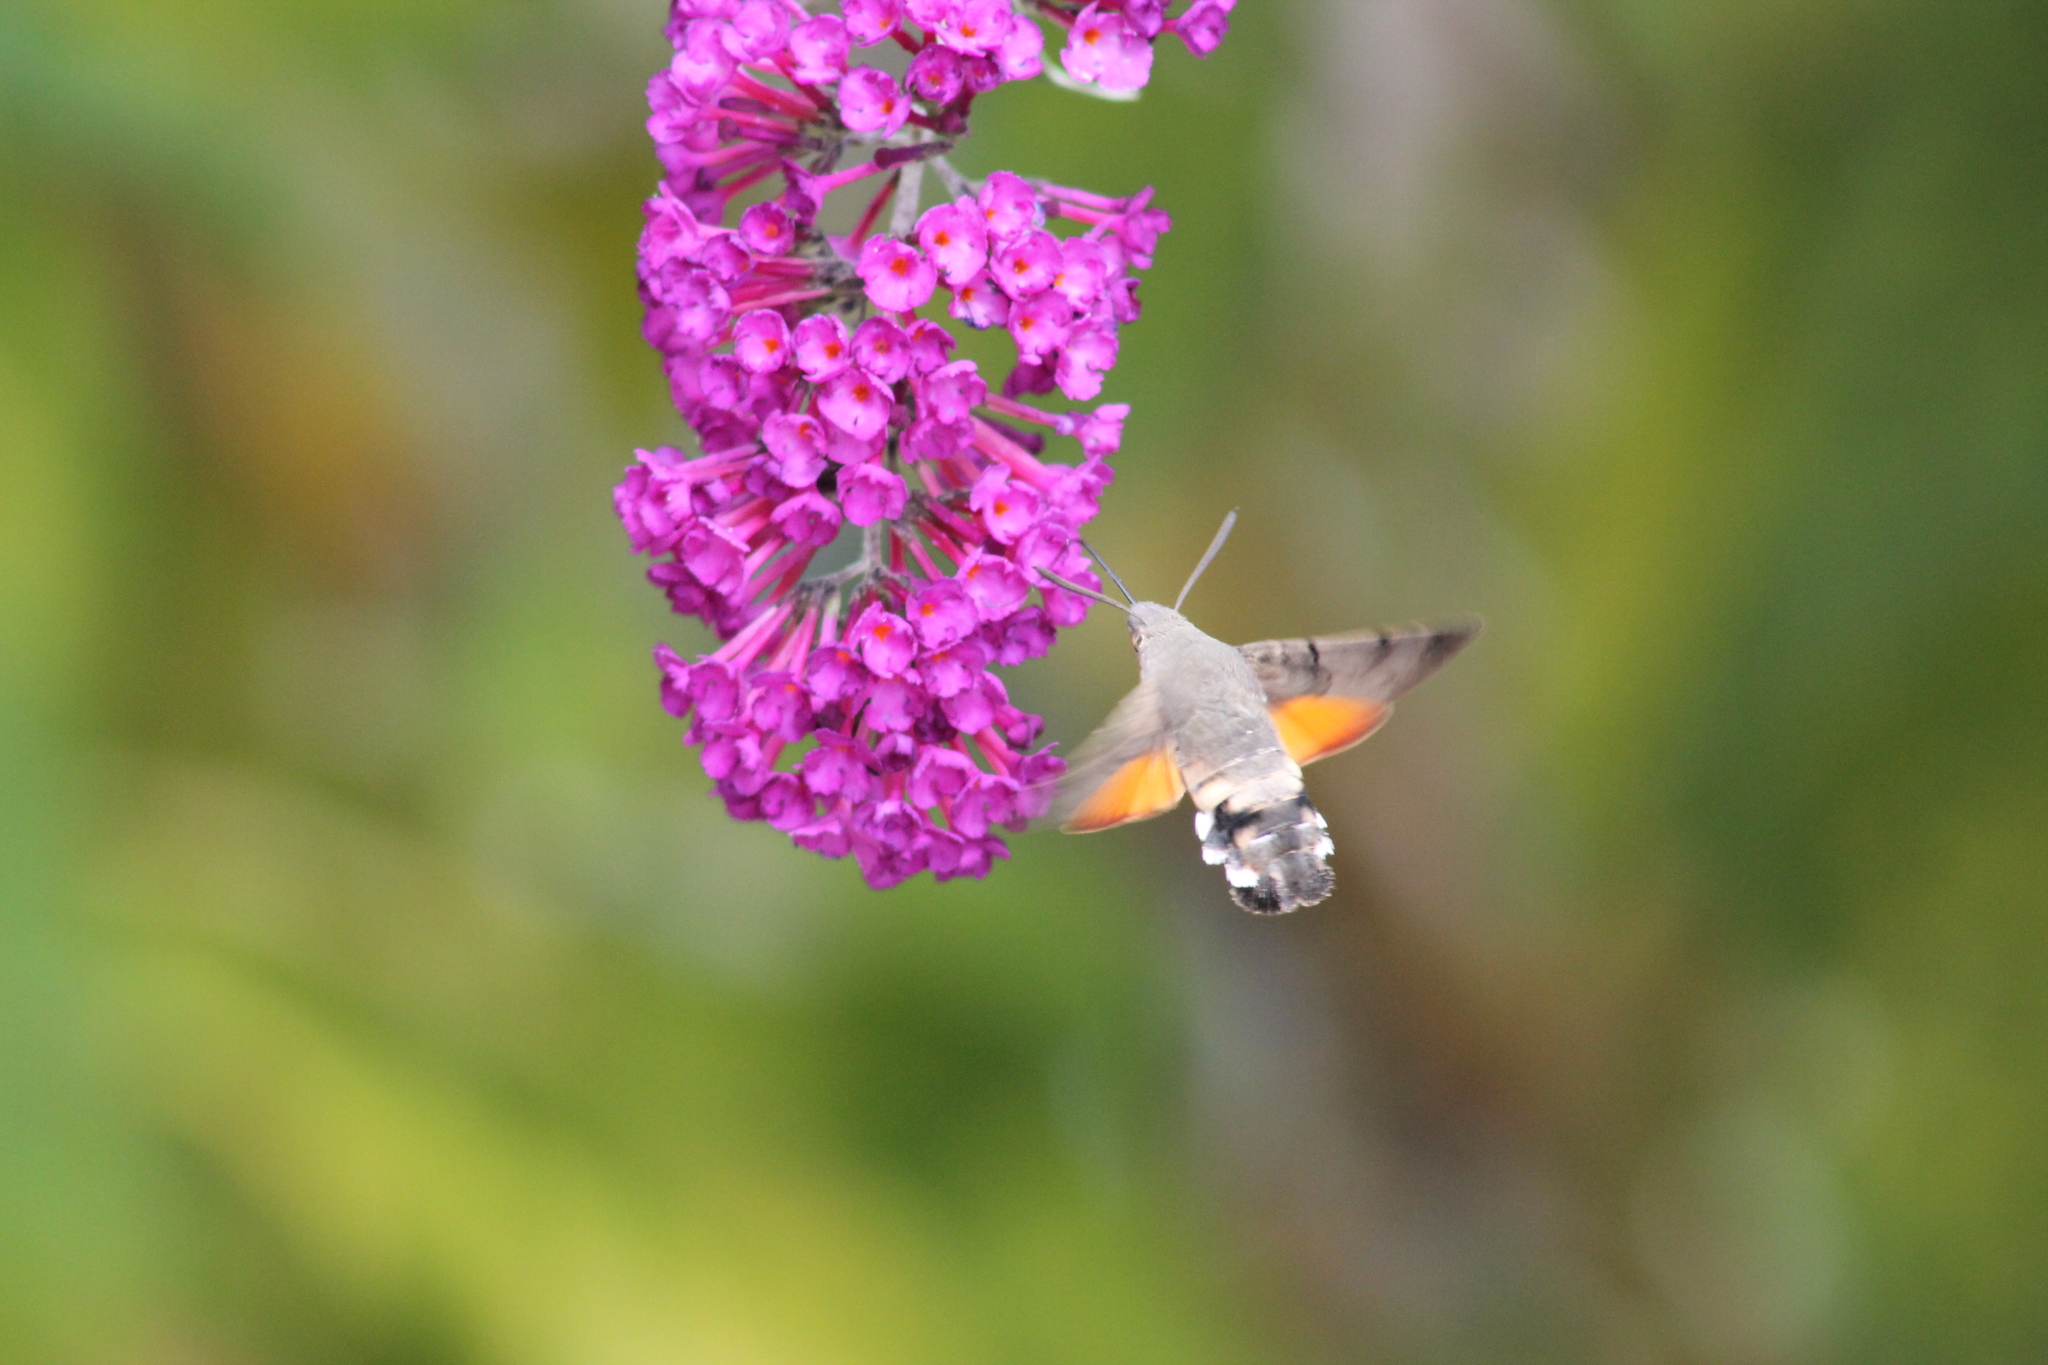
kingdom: Animalia
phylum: Arthropoda
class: Insecta
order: Lepidoptera
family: Sphingidae
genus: Macroglossum
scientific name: Macroglossum stellatarum
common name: Humming-bird hawk-moth
